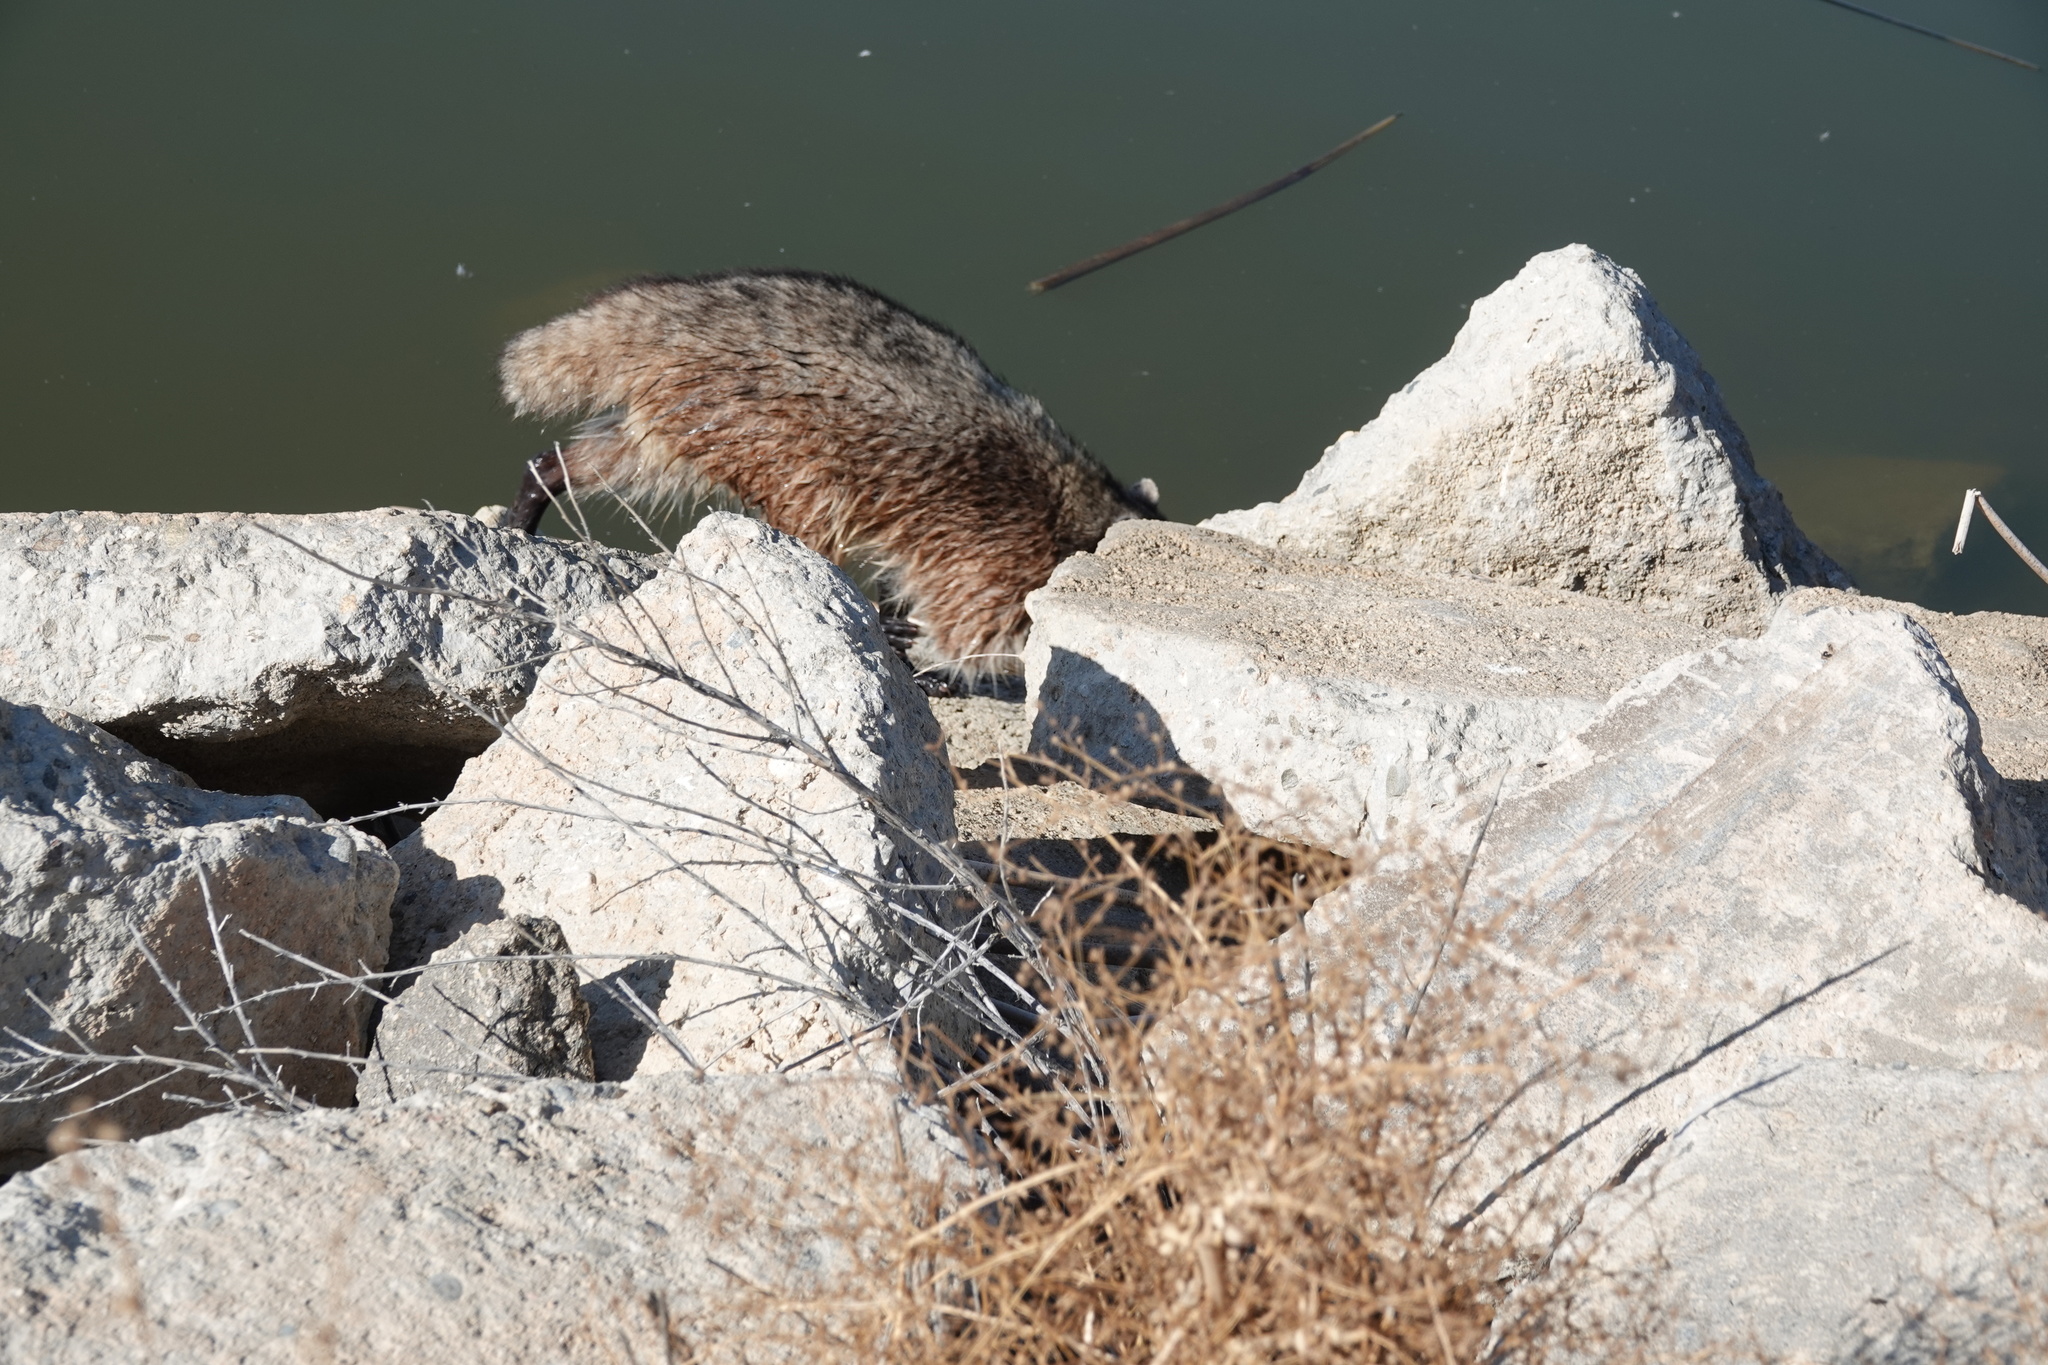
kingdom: Animalia
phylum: Chordata
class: Mammalia
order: Carnivora
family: Procyonidae
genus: Procyon
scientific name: Procyon lotor
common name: Raccoon
